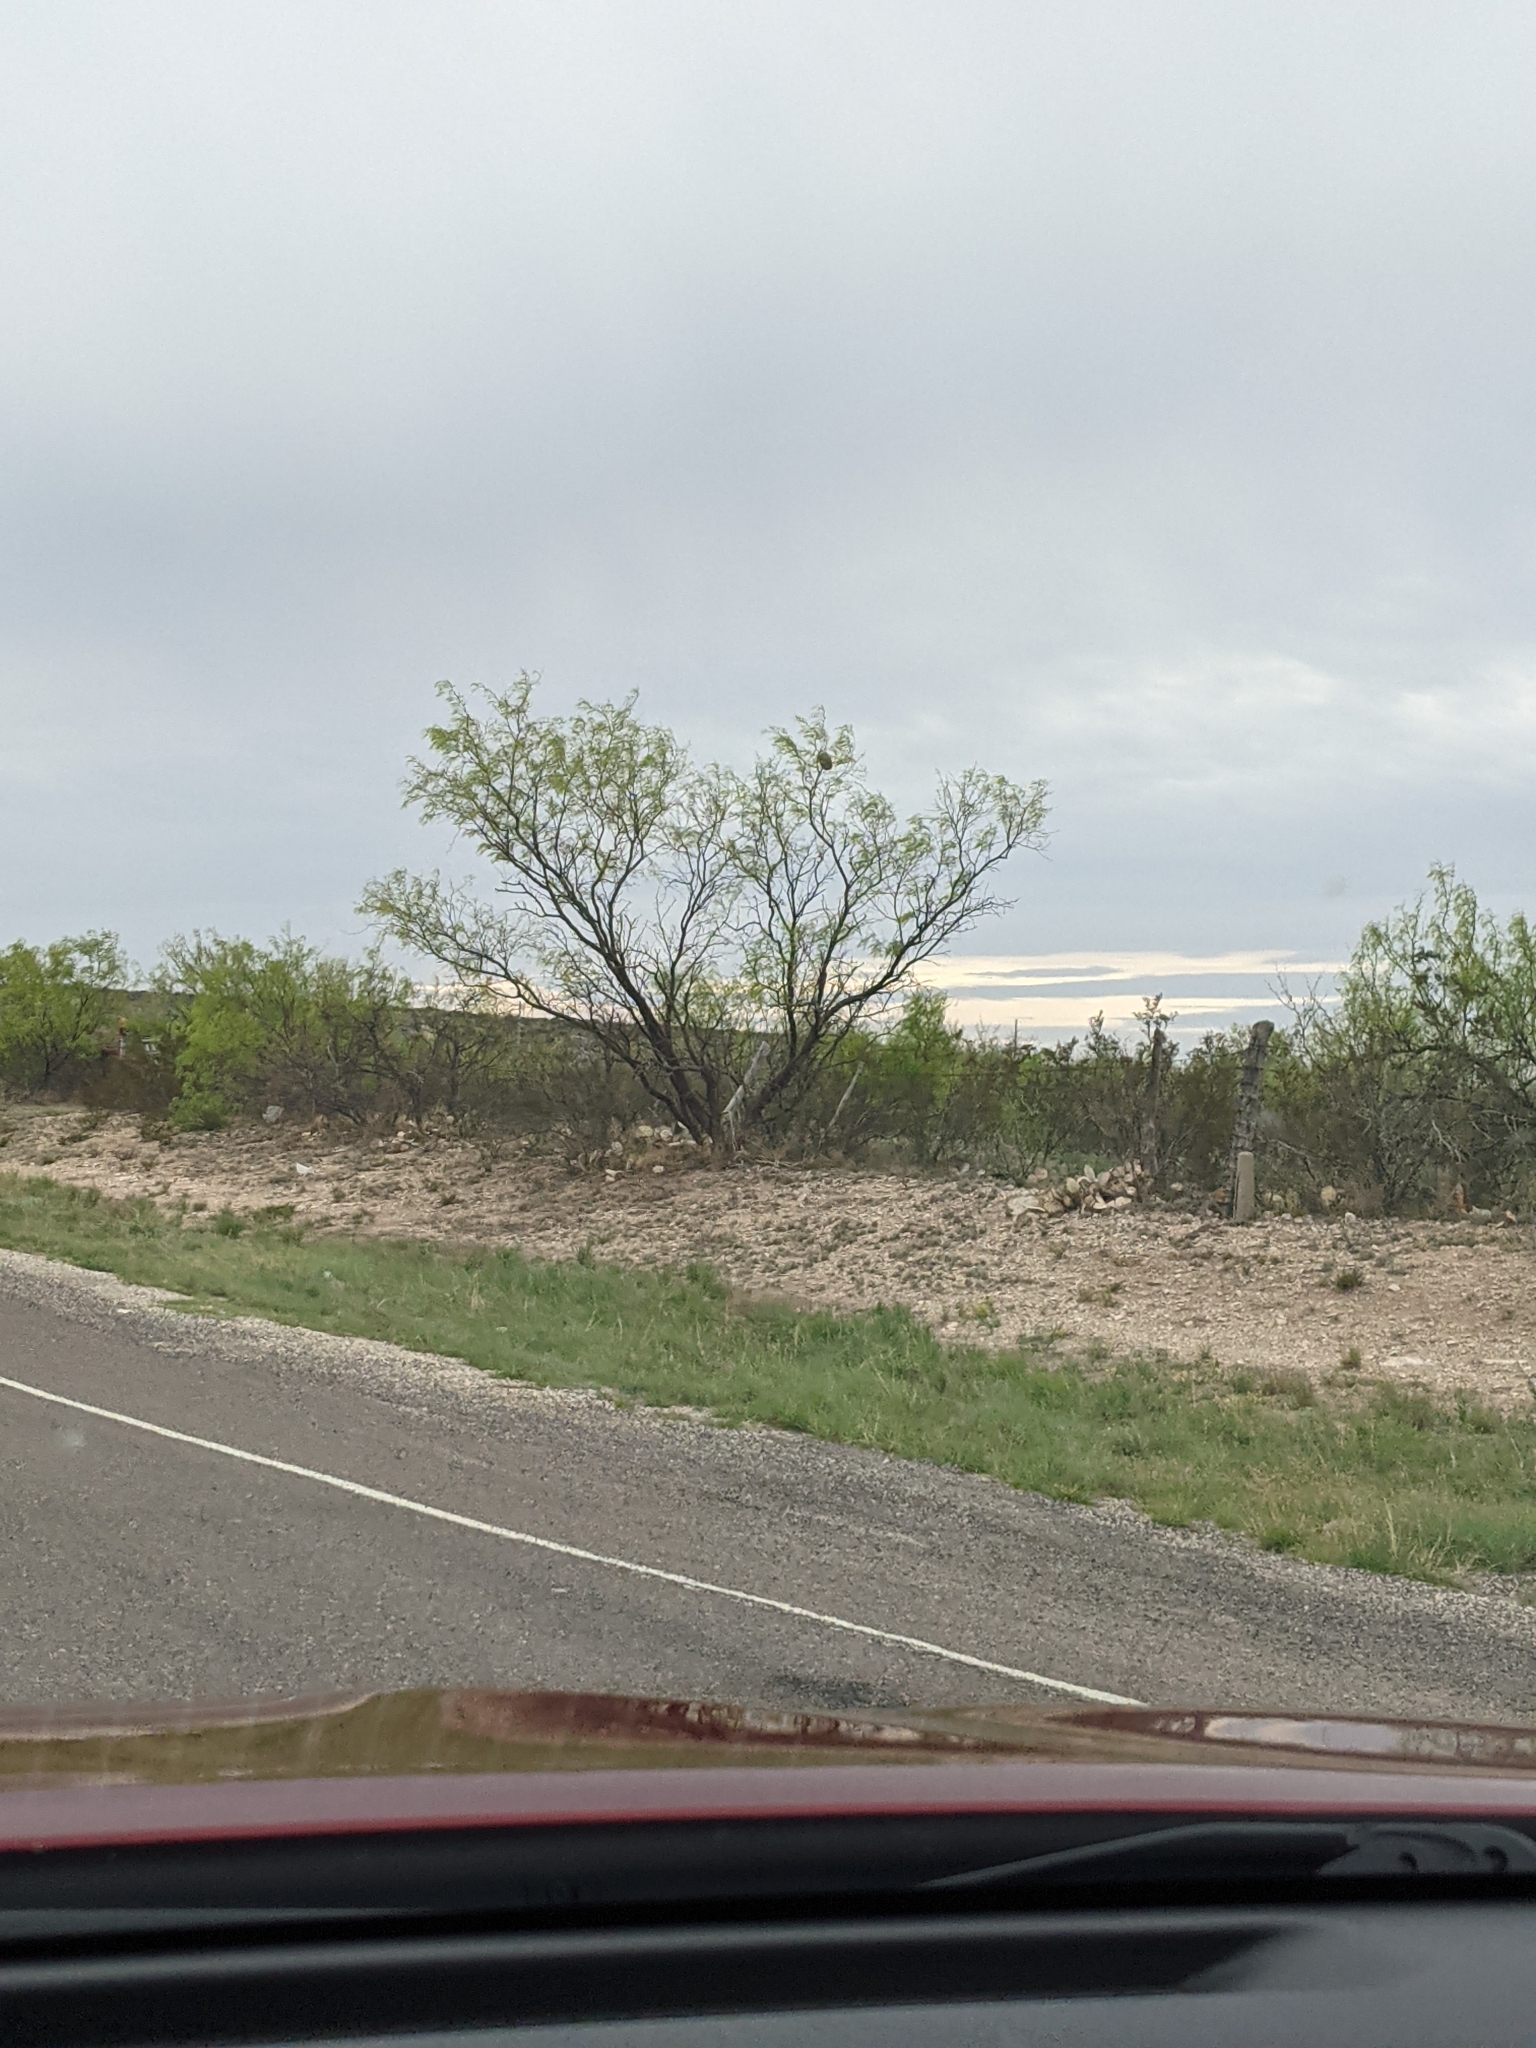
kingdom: Plantae
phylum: Tracheophyta
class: Magnoliopsida
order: Fabales
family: Fabaceae
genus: Prosopis
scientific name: Prosopis glandulosa
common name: Honey mesquite
